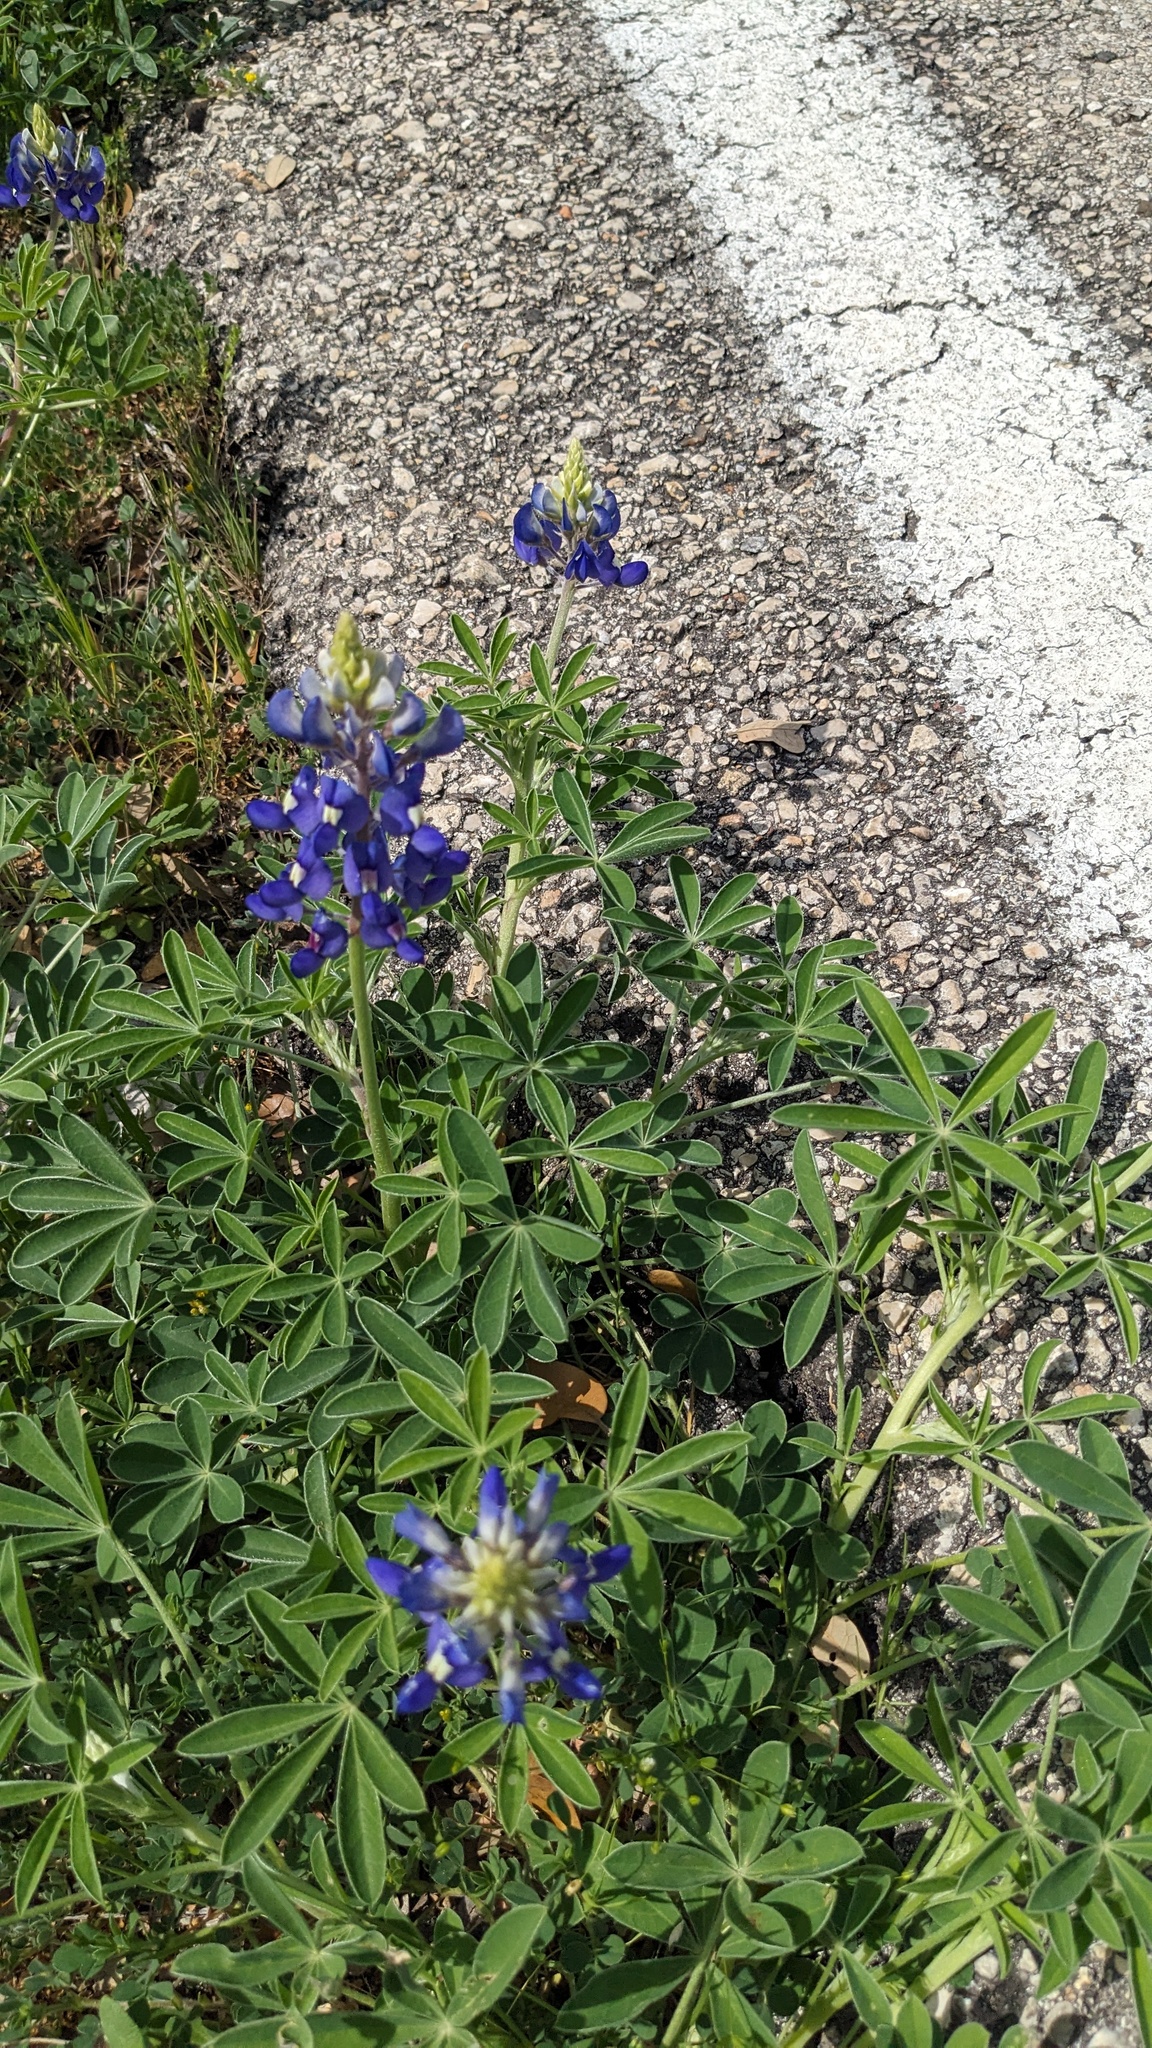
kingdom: Plantae
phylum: Tracheophyta
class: Magnoliopsida
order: Fabales
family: Fabaceae
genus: Lupinus
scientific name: Lupinus texensis
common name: Texas bluebonnet
